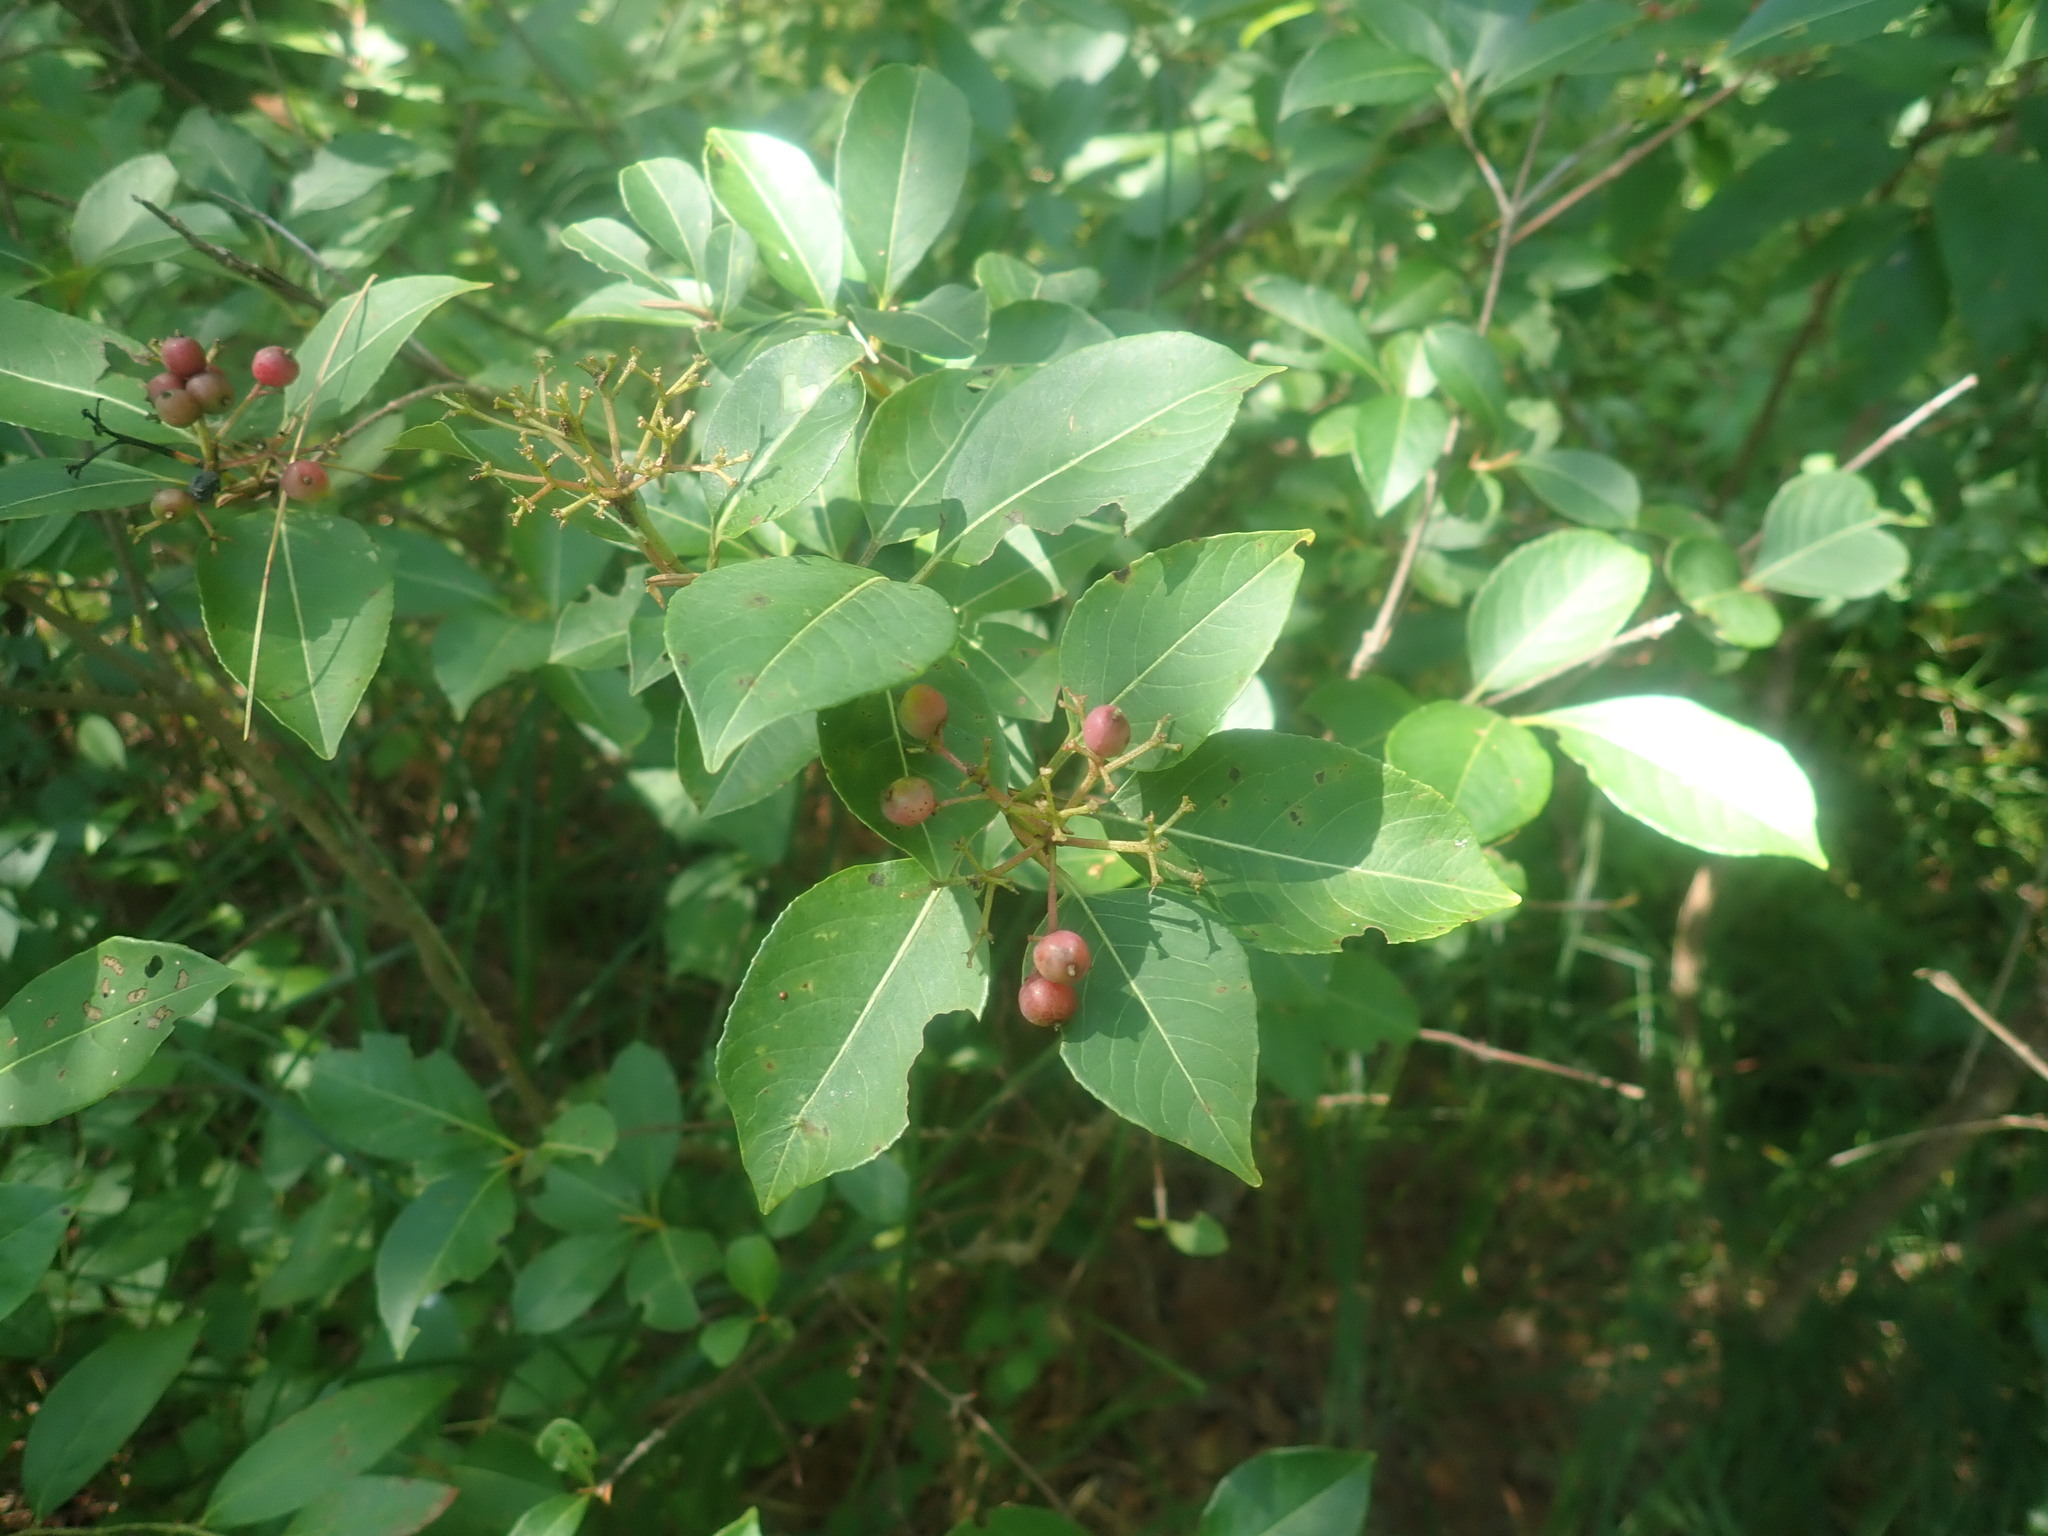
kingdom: Plantae
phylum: Tracheophyta
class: Magnoliopsida
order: Dipsacales
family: Viburnaceae
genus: Viburnum
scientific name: Viburnum cassinoides
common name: Swamp haw
